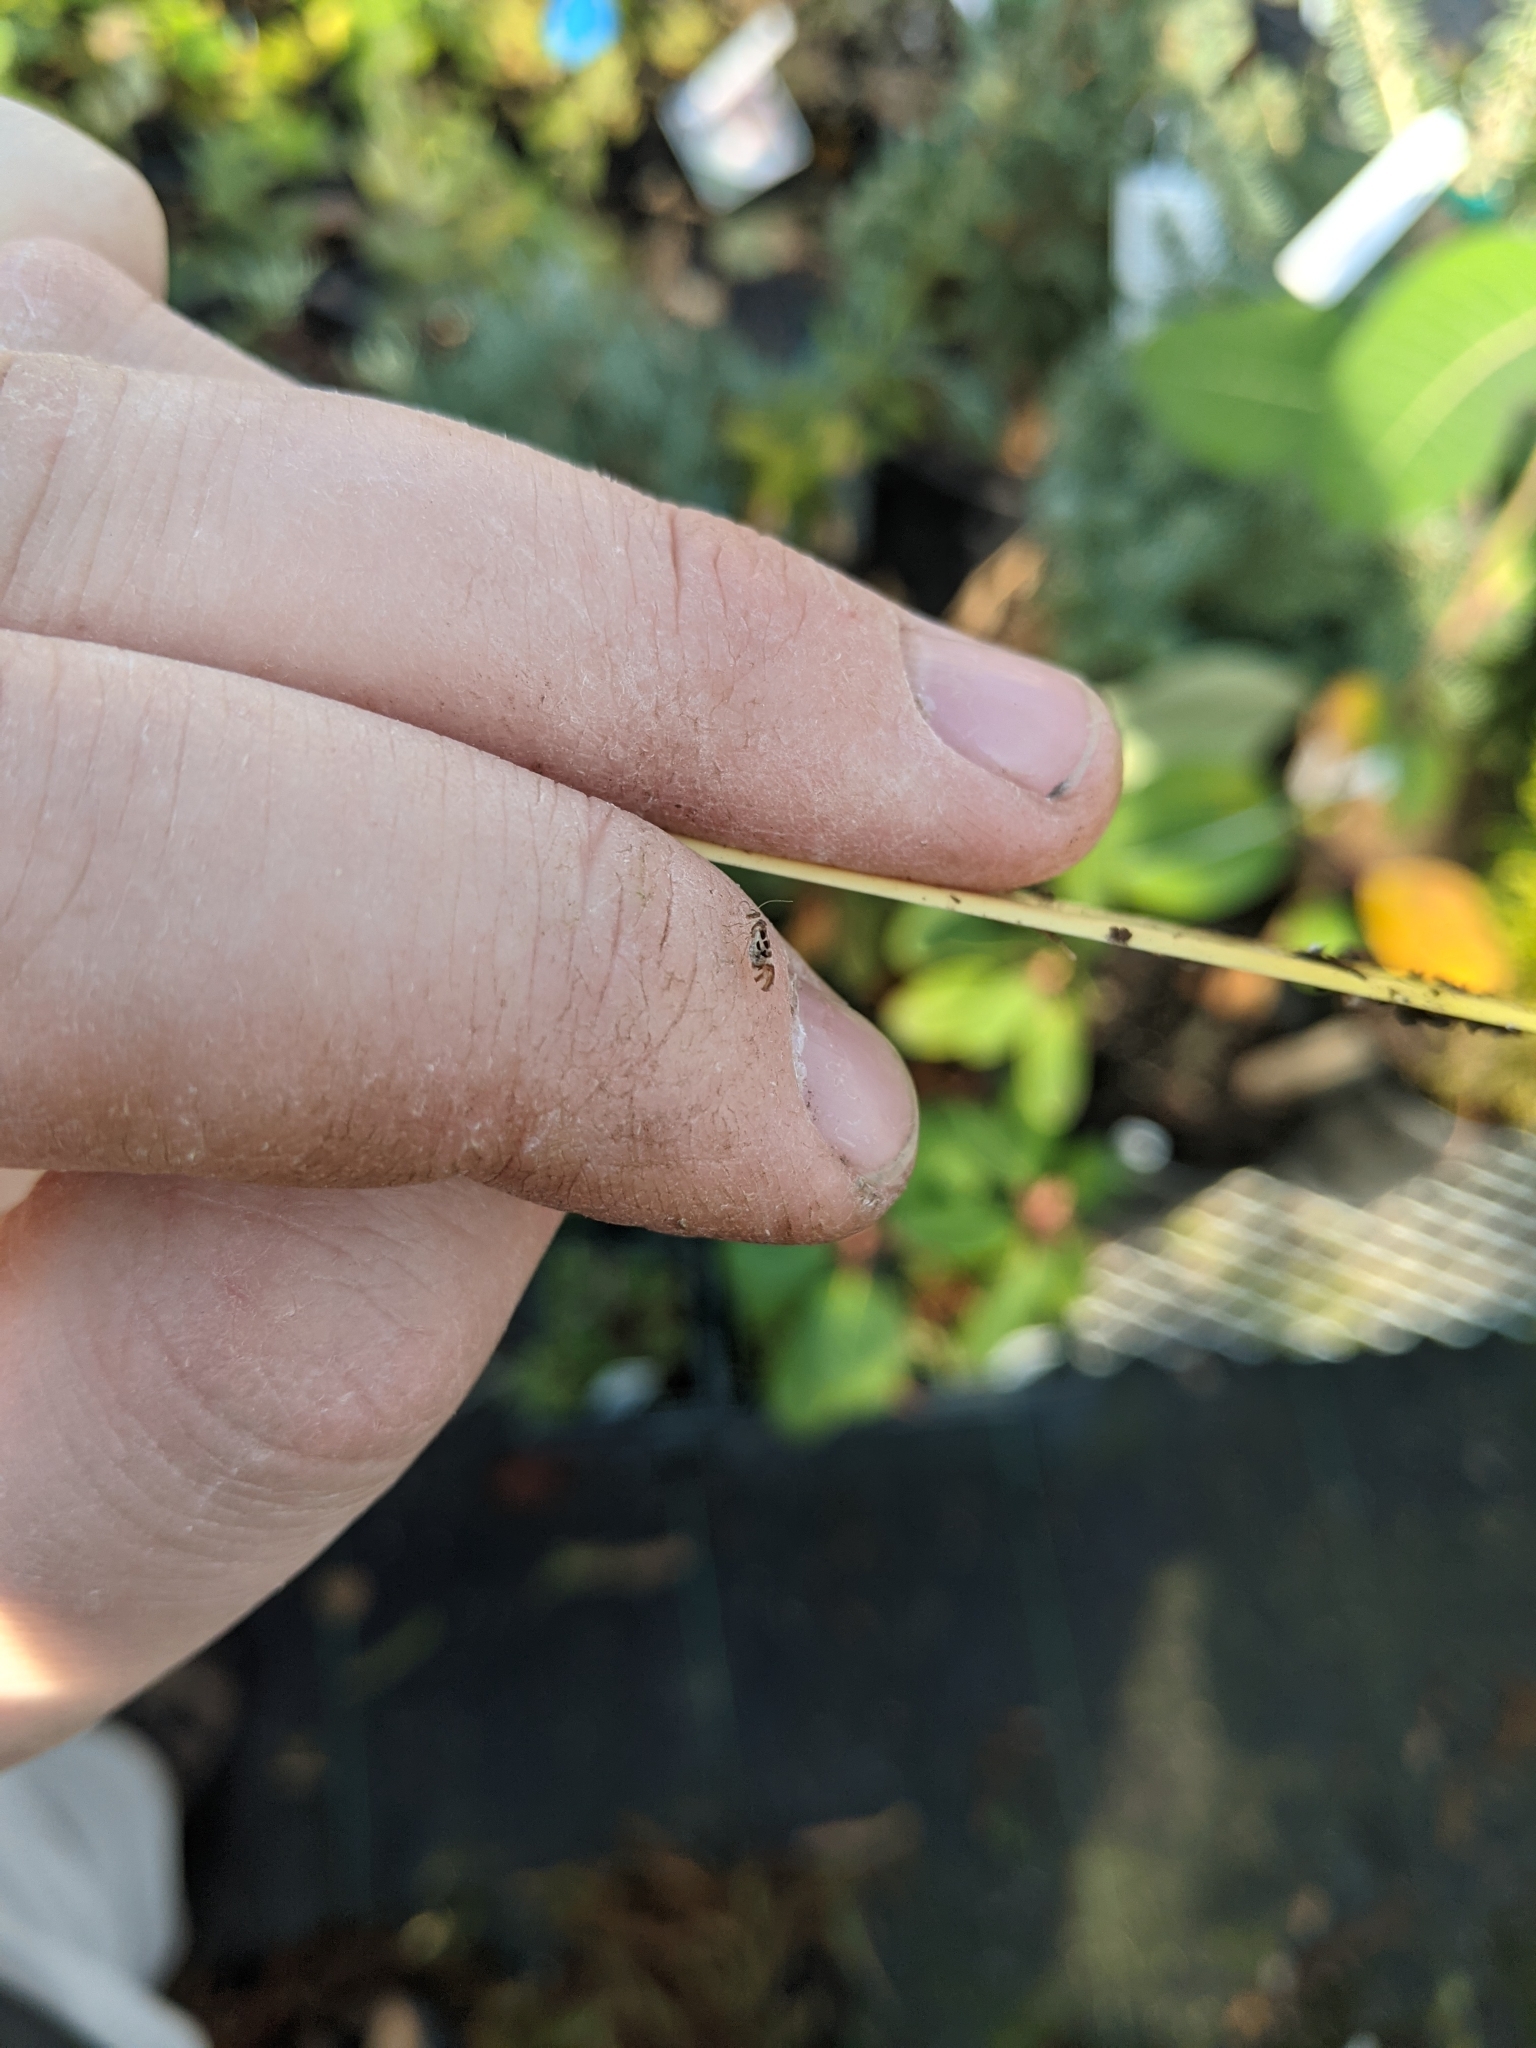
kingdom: Animalia
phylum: Arthropoda
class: Insecta
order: Psocodea
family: Stenopsocidae
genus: Graphopsocus
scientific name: Graphopsocus cruciatus
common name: Lizard bark louse
